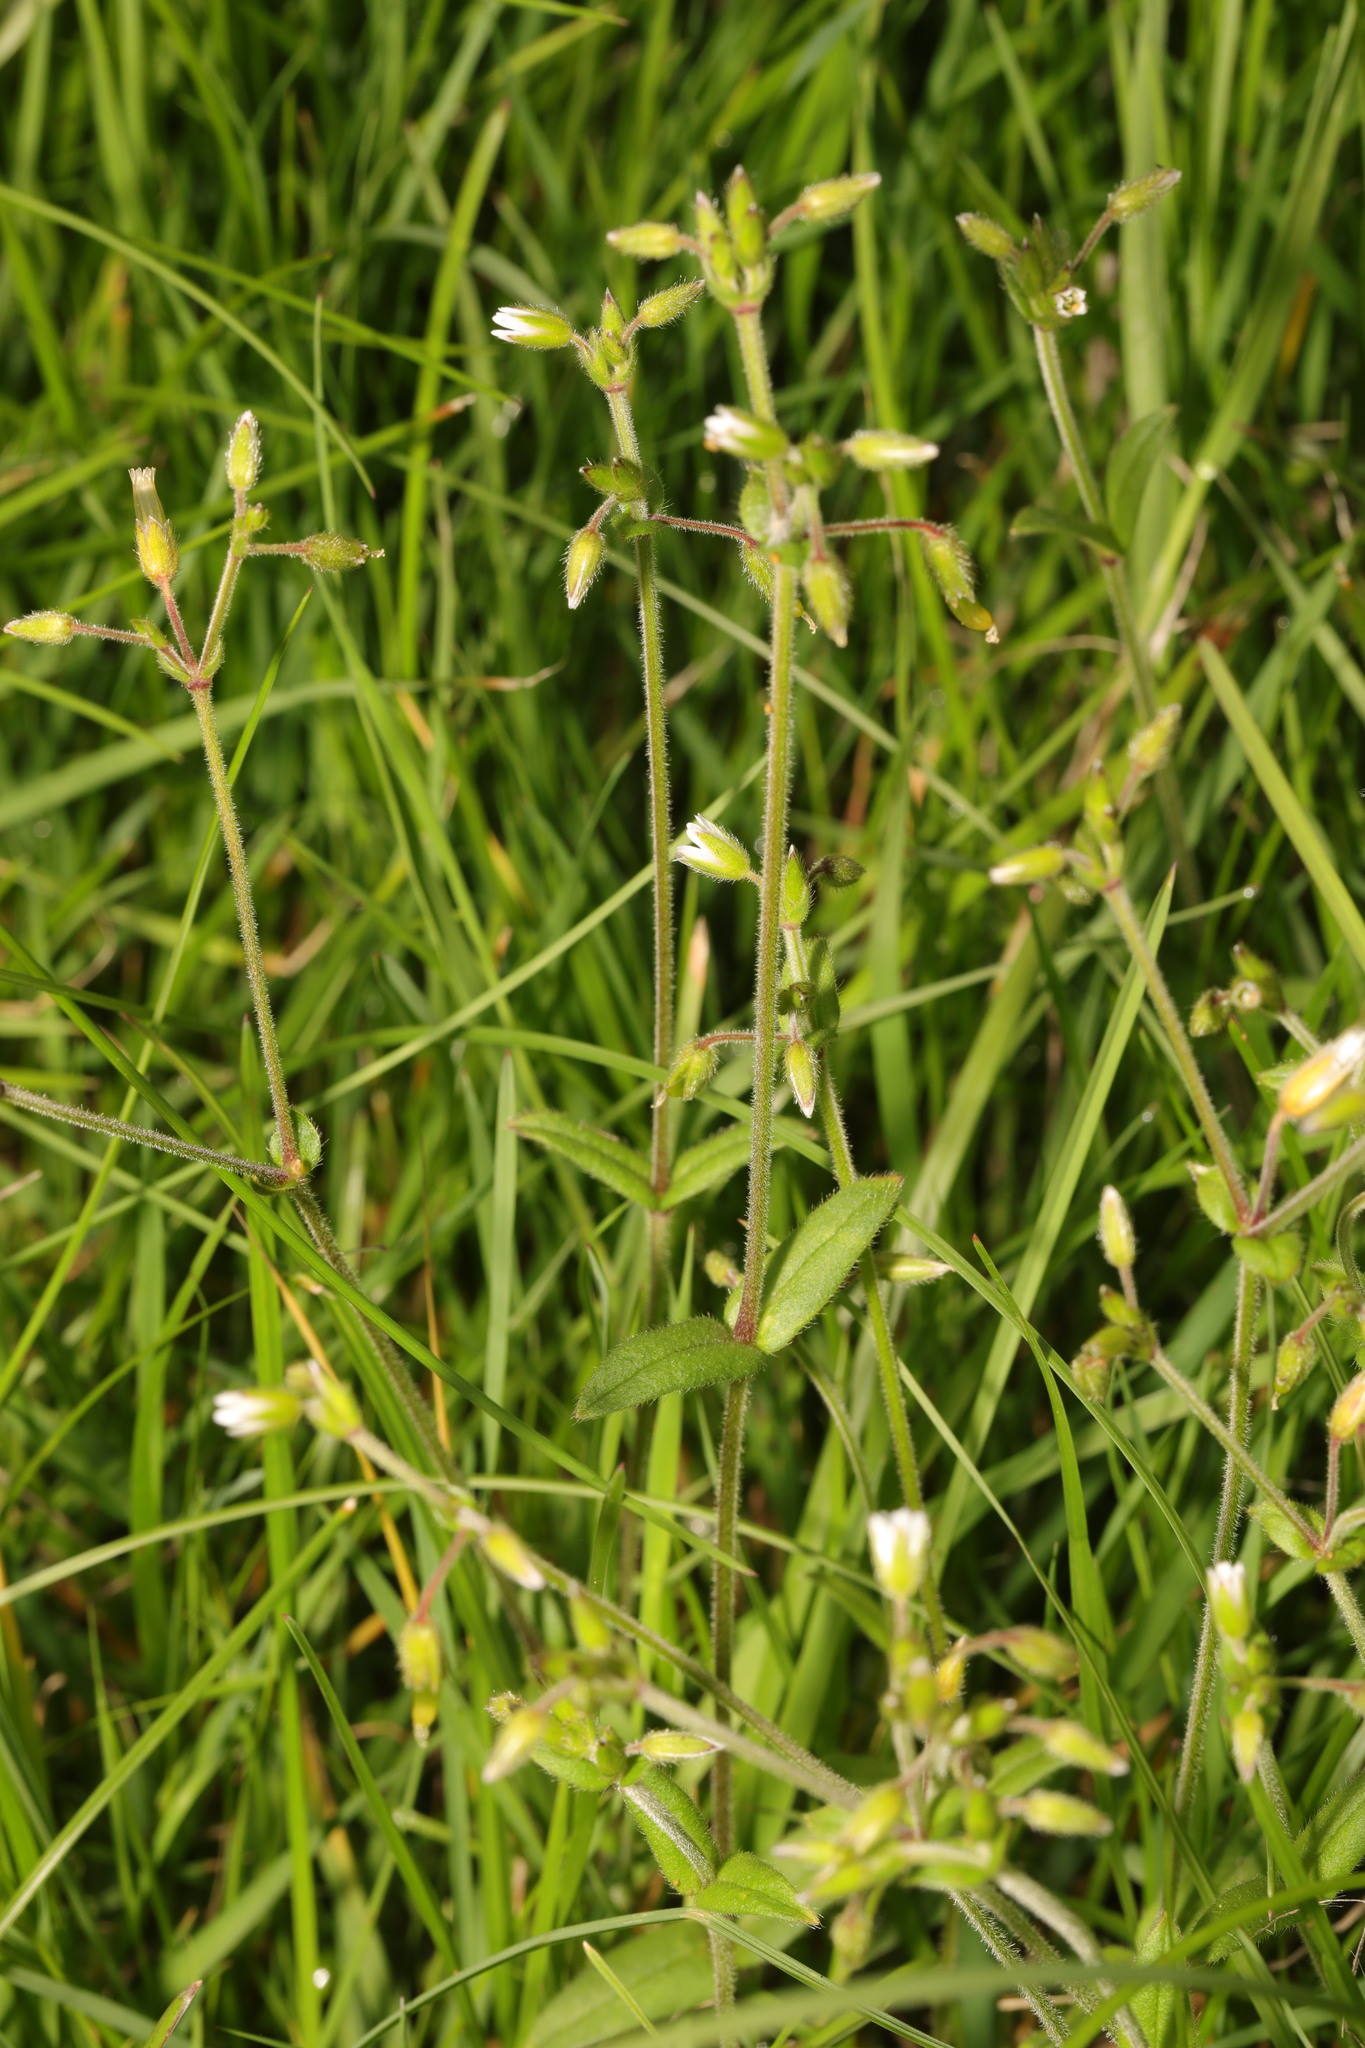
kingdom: Plantae
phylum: Tracheophyta
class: Magnoliopsida
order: Caryophyllales
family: Caryophyllaceae
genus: Cerastium
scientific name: Cerastium fontanum
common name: Common mouse-ear
